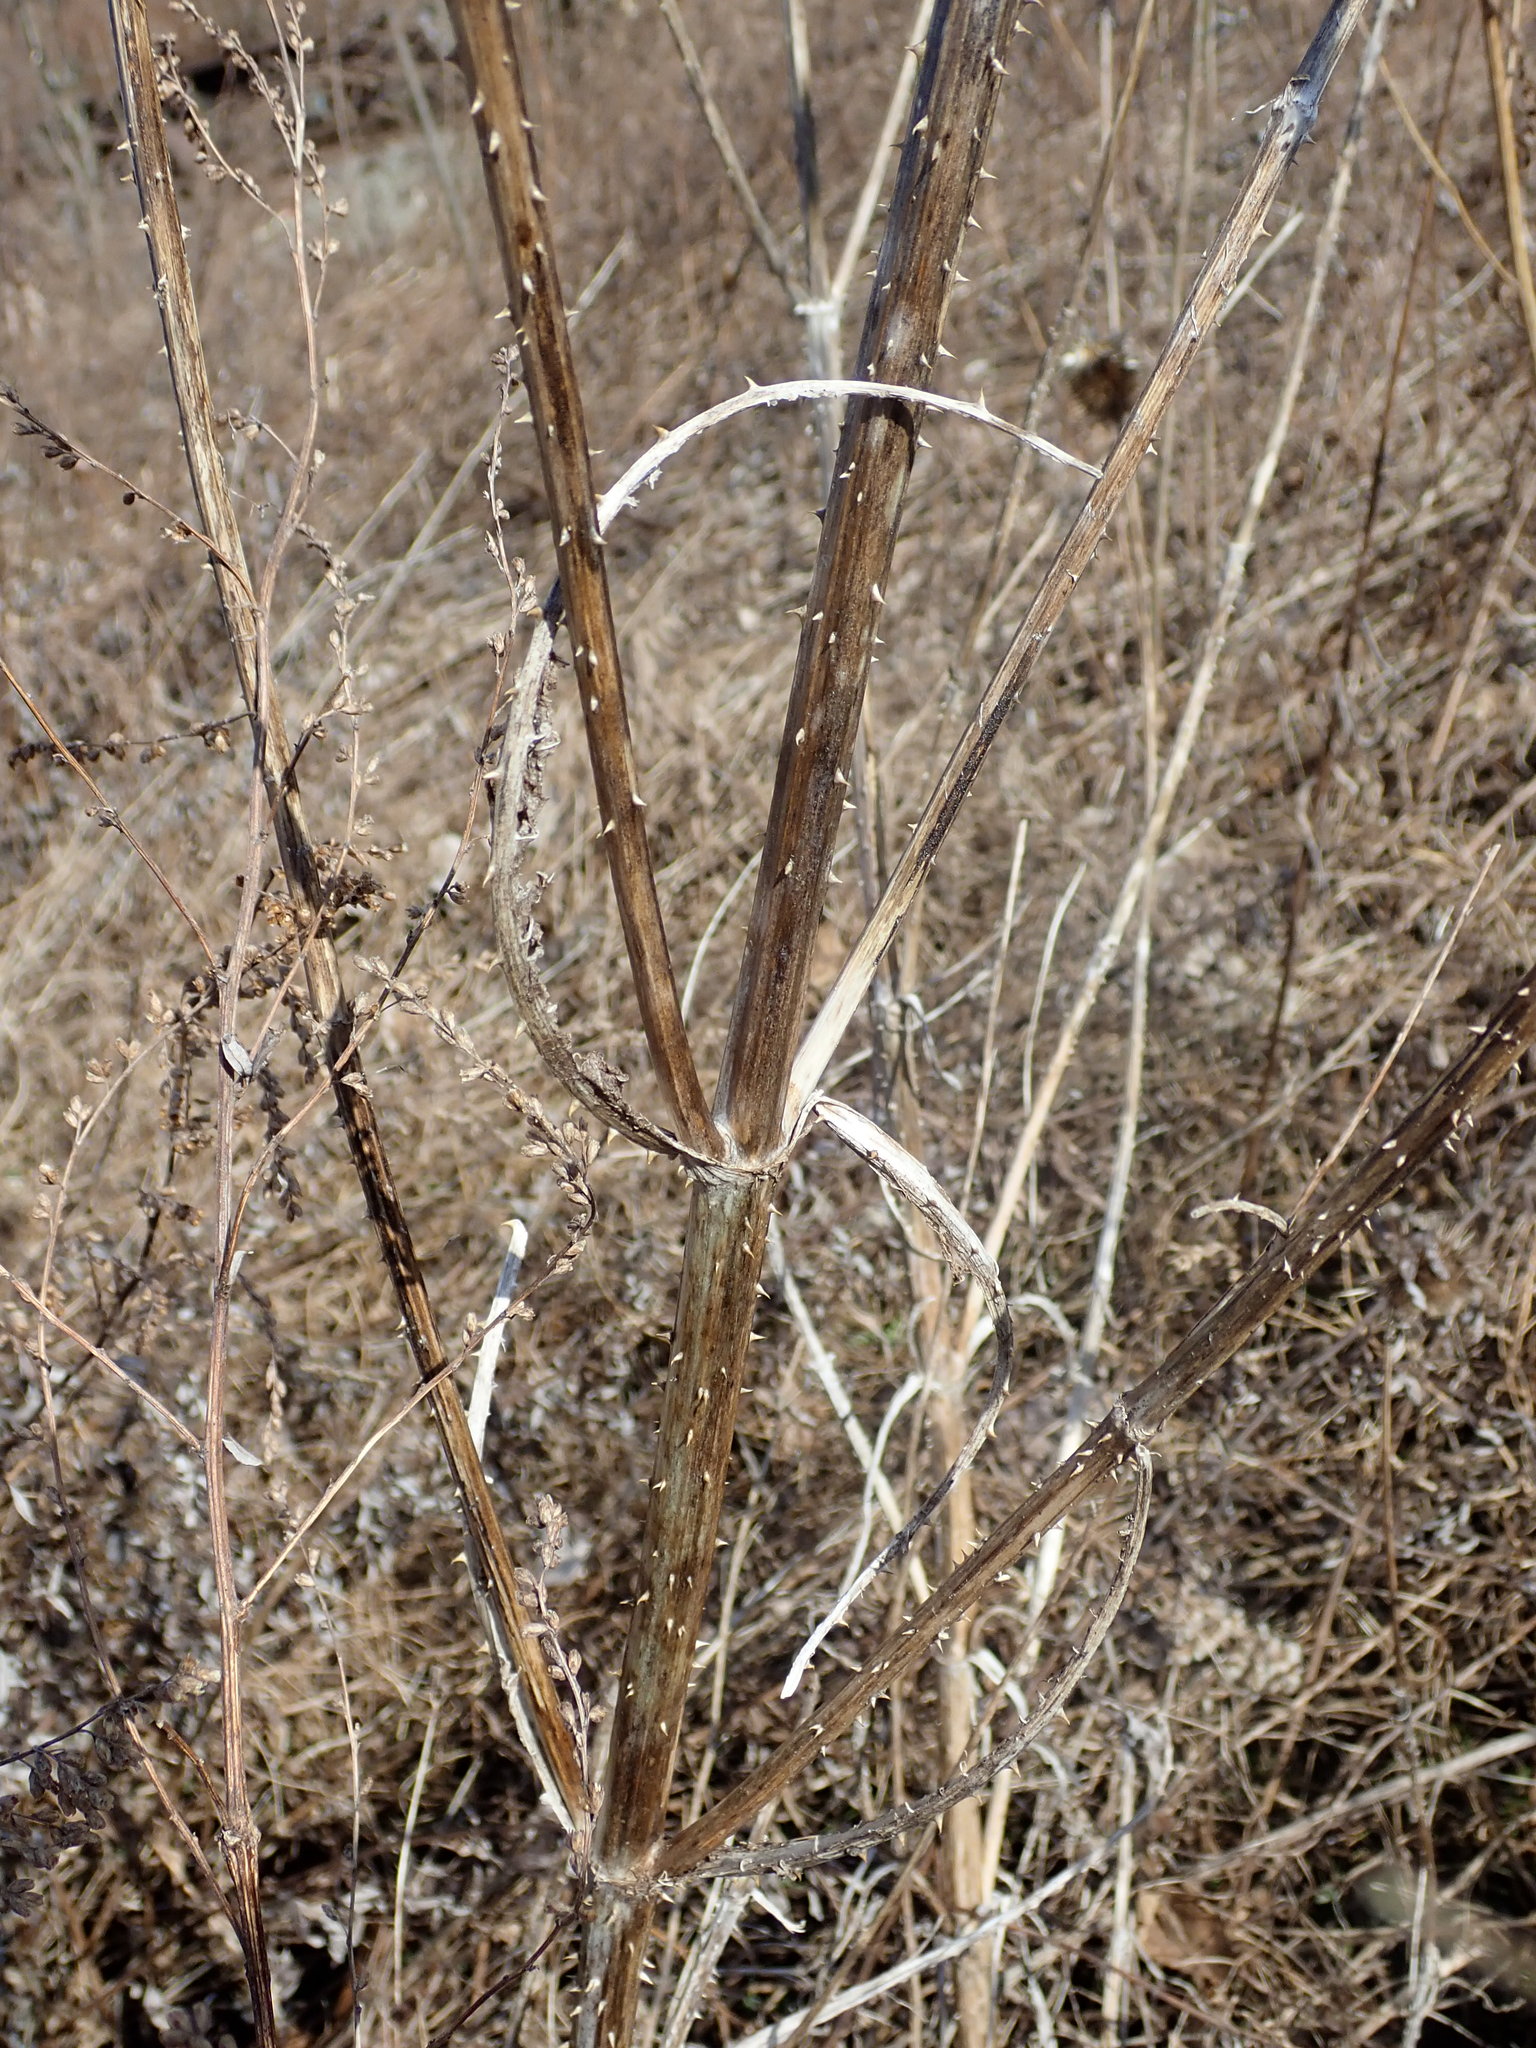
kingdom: Plantae
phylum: Tracheophyta
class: Magnoliopsida
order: Dipsacales
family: Caprifoliaceae
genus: Dipsacus
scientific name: Dipsacus fullonum
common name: Teasel
